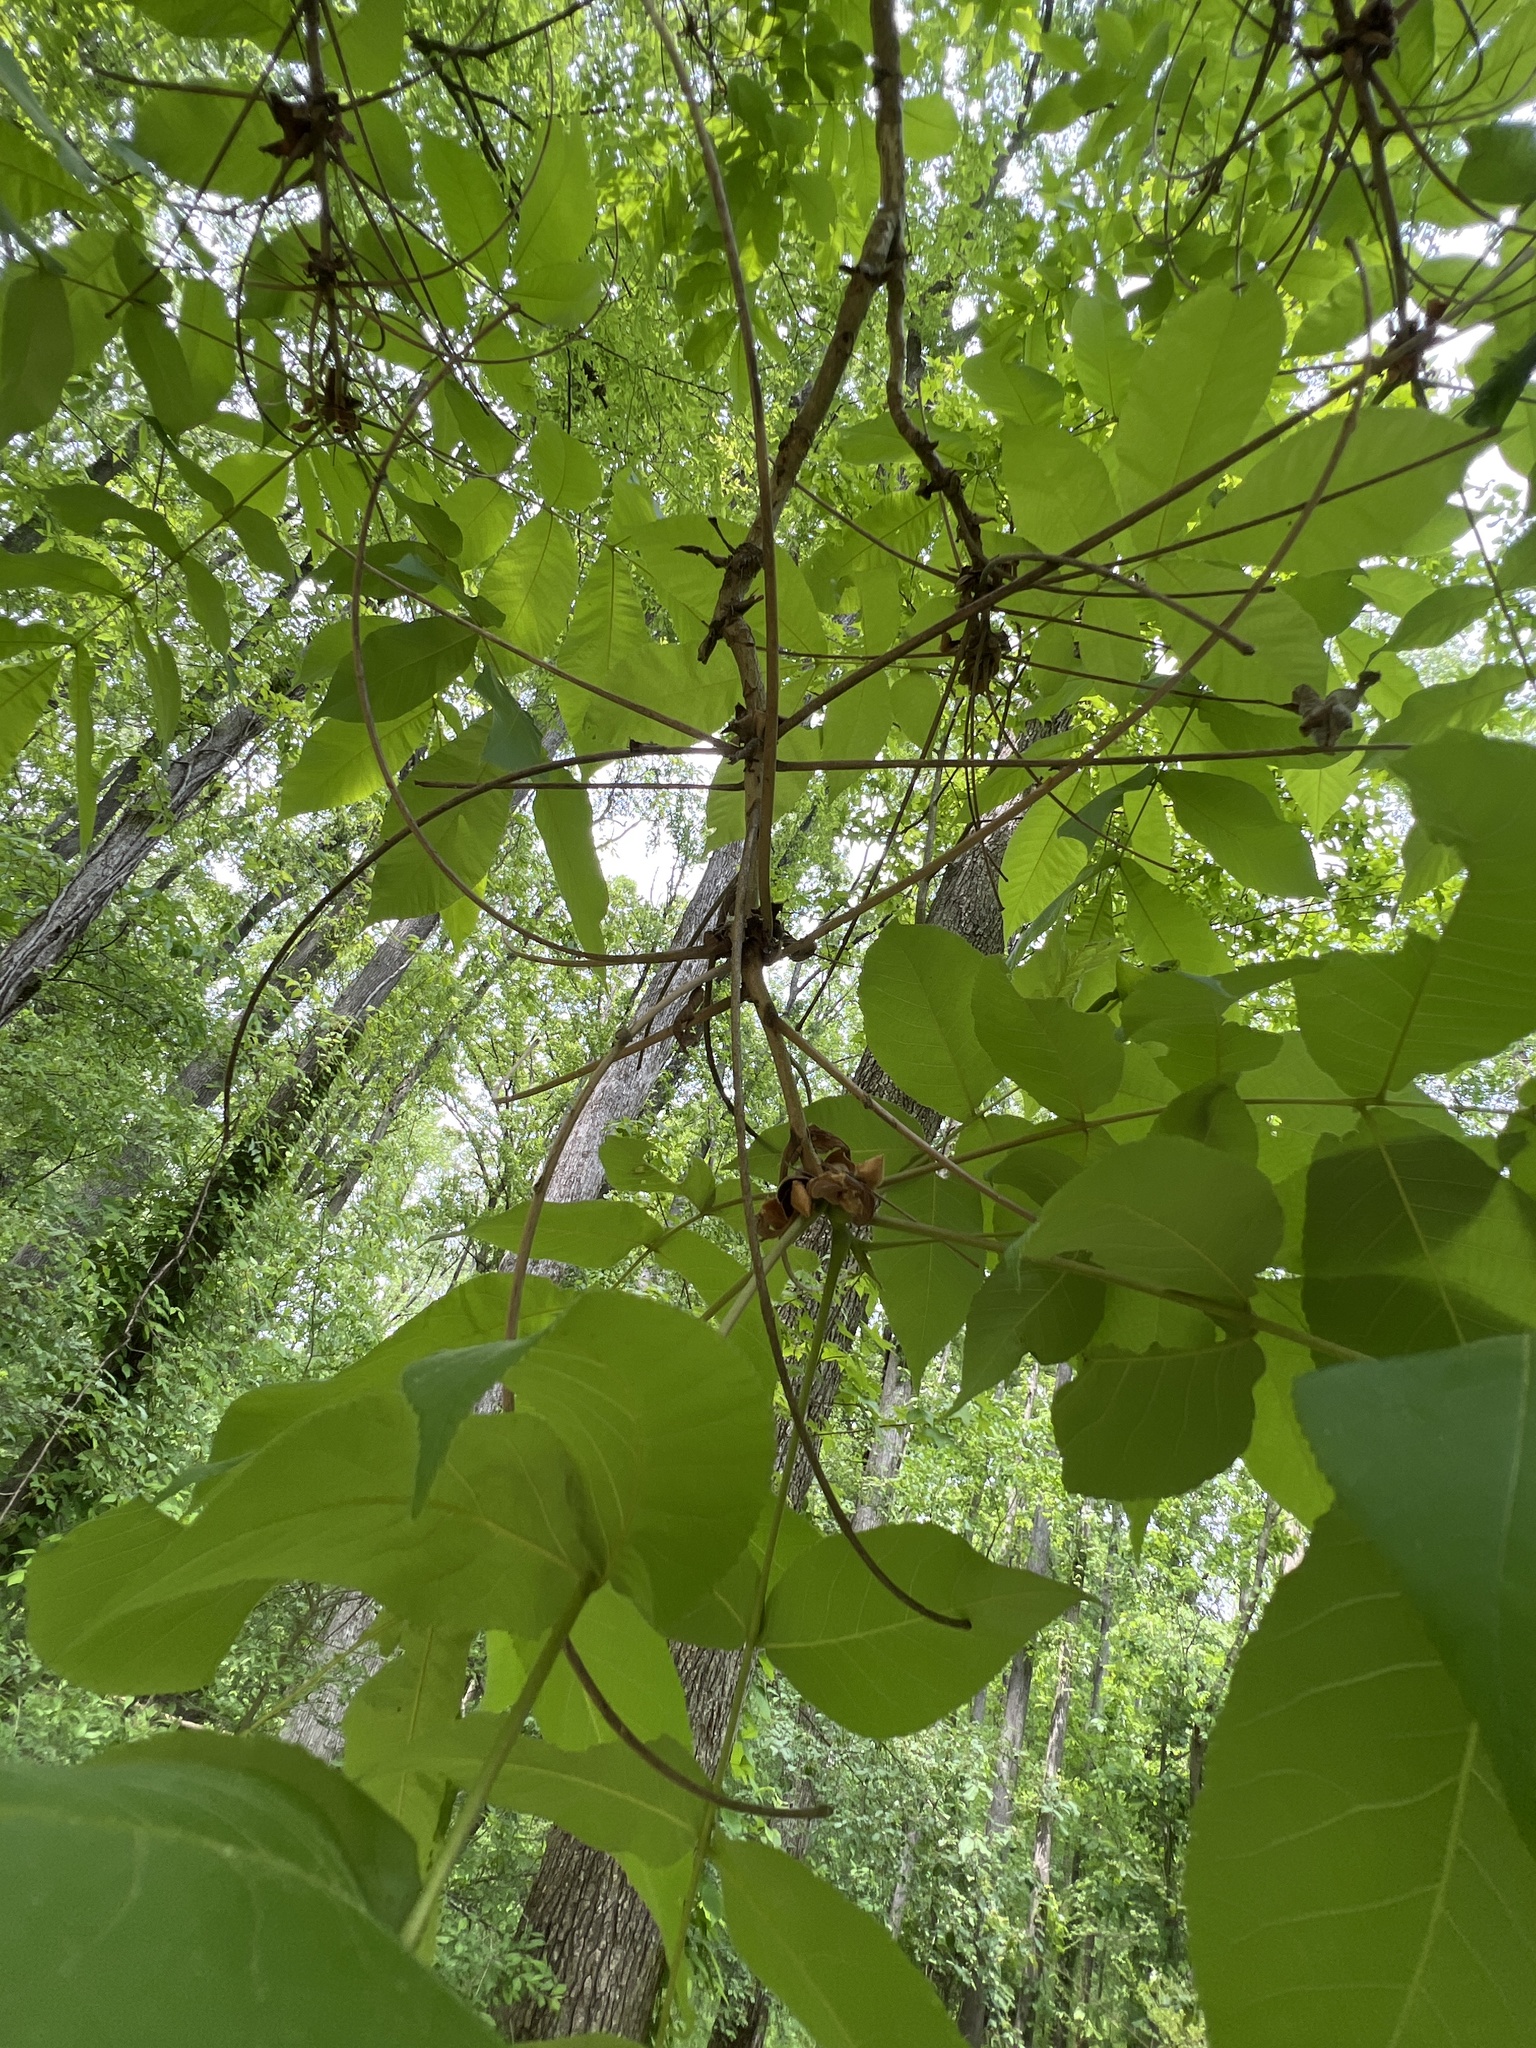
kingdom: Plantae
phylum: Tracheophyta
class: Magnoliopsida
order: Fagales
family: Juglandaceae
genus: Carya
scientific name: Carya laciniosa
